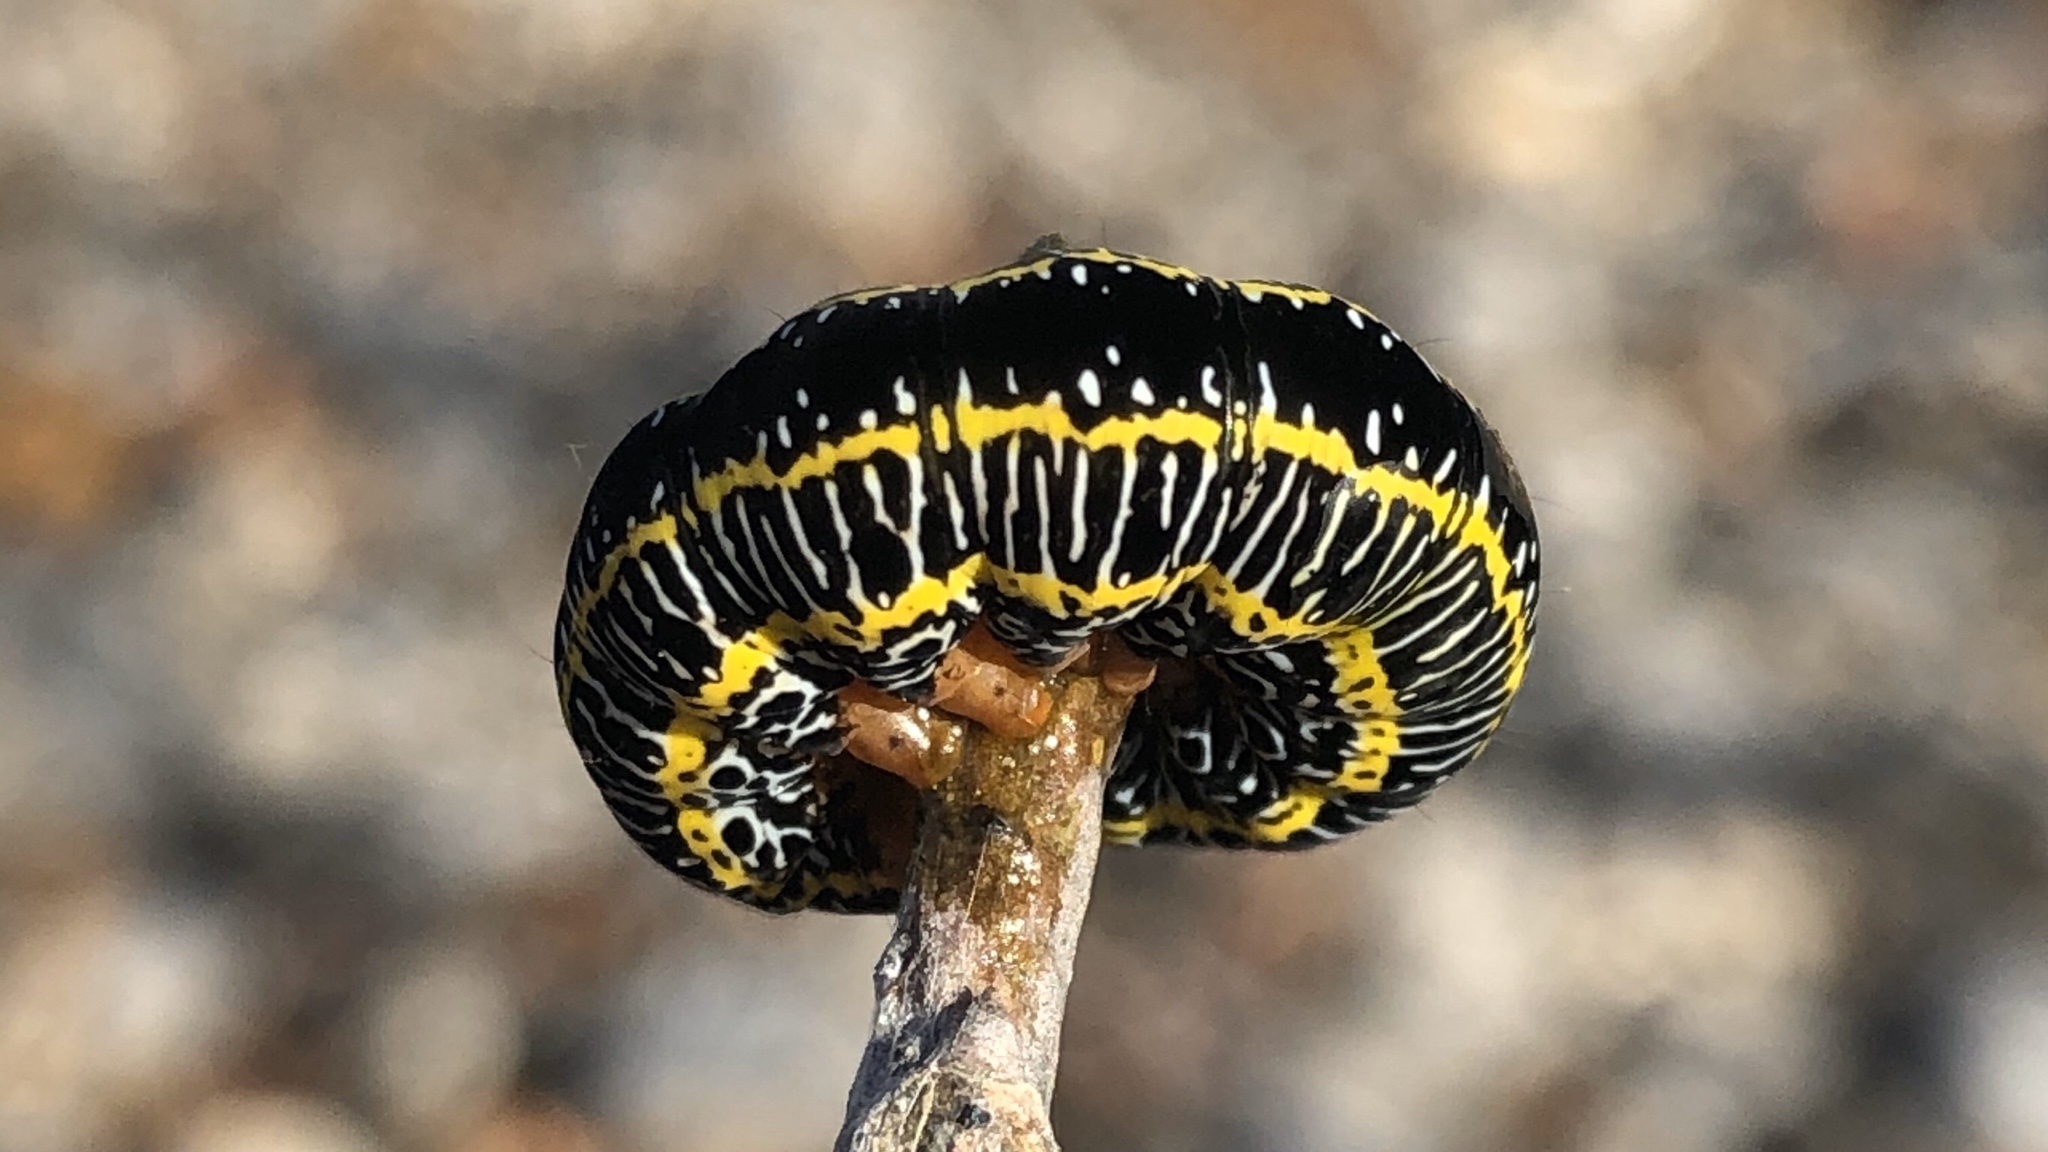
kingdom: Animalia
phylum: Arthropoda
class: Insecta
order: Lepidoptera
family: Noctuidae
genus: Melanchra
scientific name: Melanchra picta
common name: Zebra caterpillar
